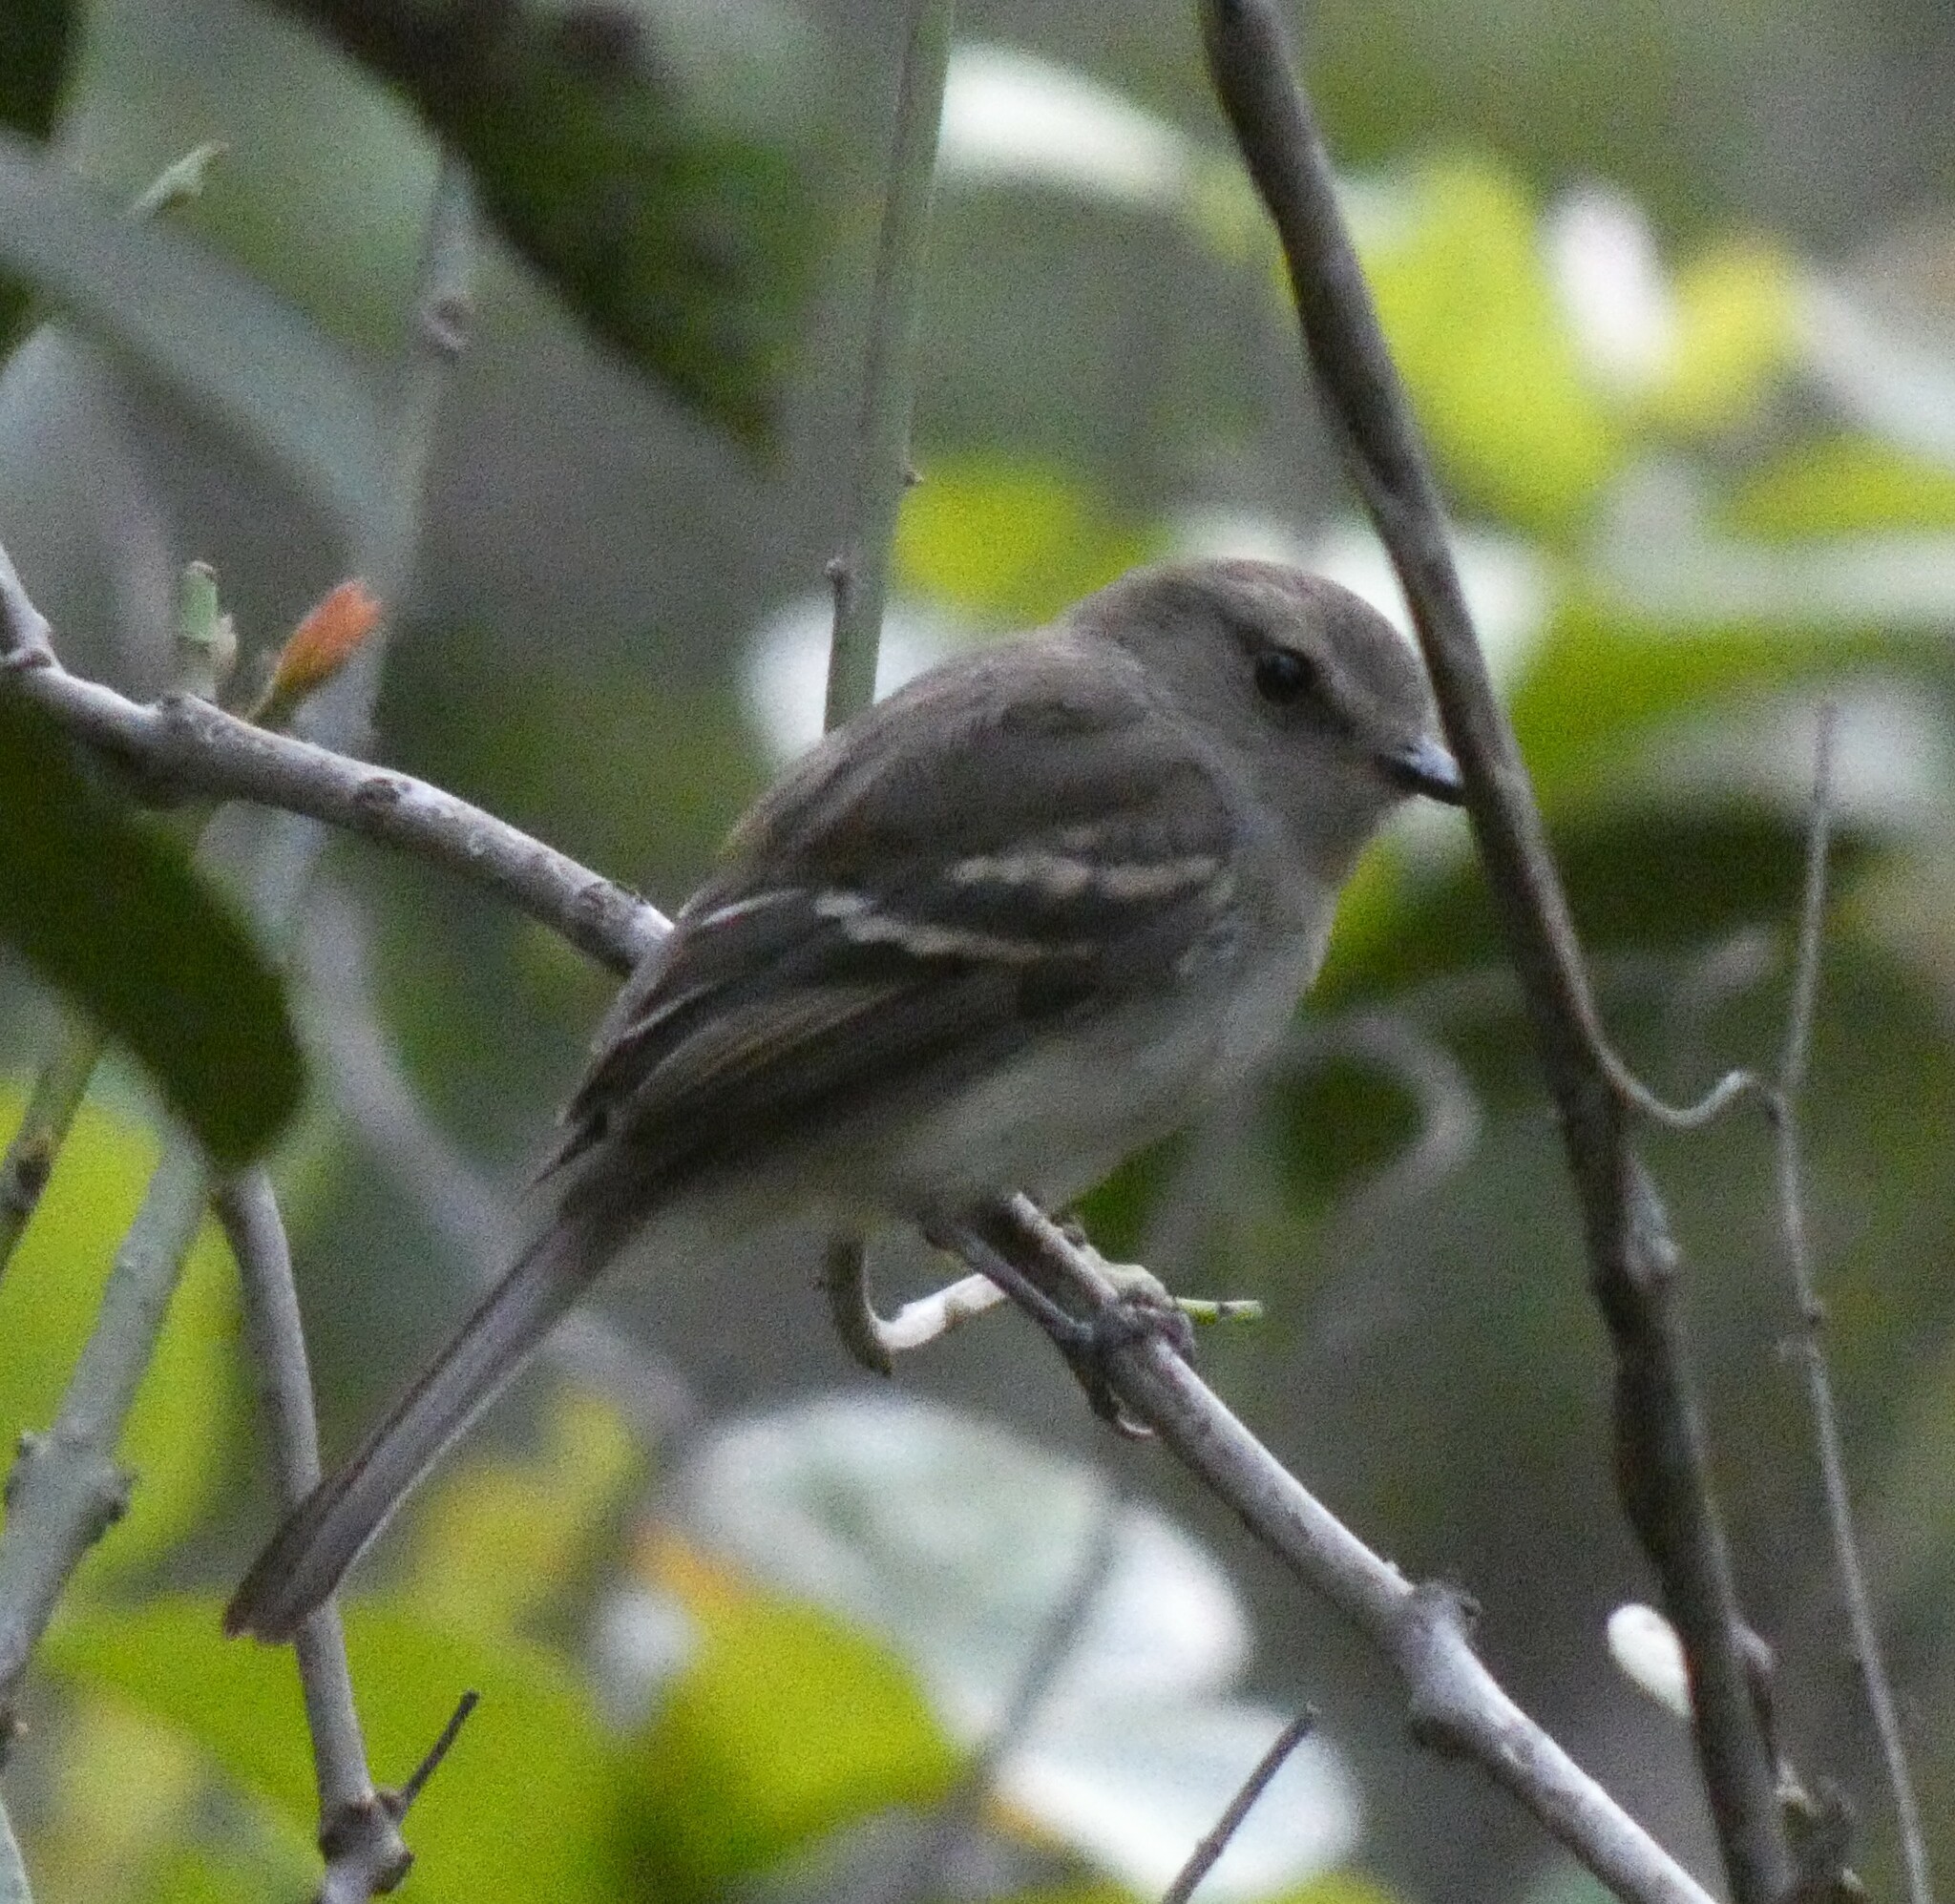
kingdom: Animalia
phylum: Chordata
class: Aves
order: Passeriformes
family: Tyrannidae
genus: Cnemotriccus
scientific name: Cnemotriccus fuscatus
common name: Fuscous flycatcher
